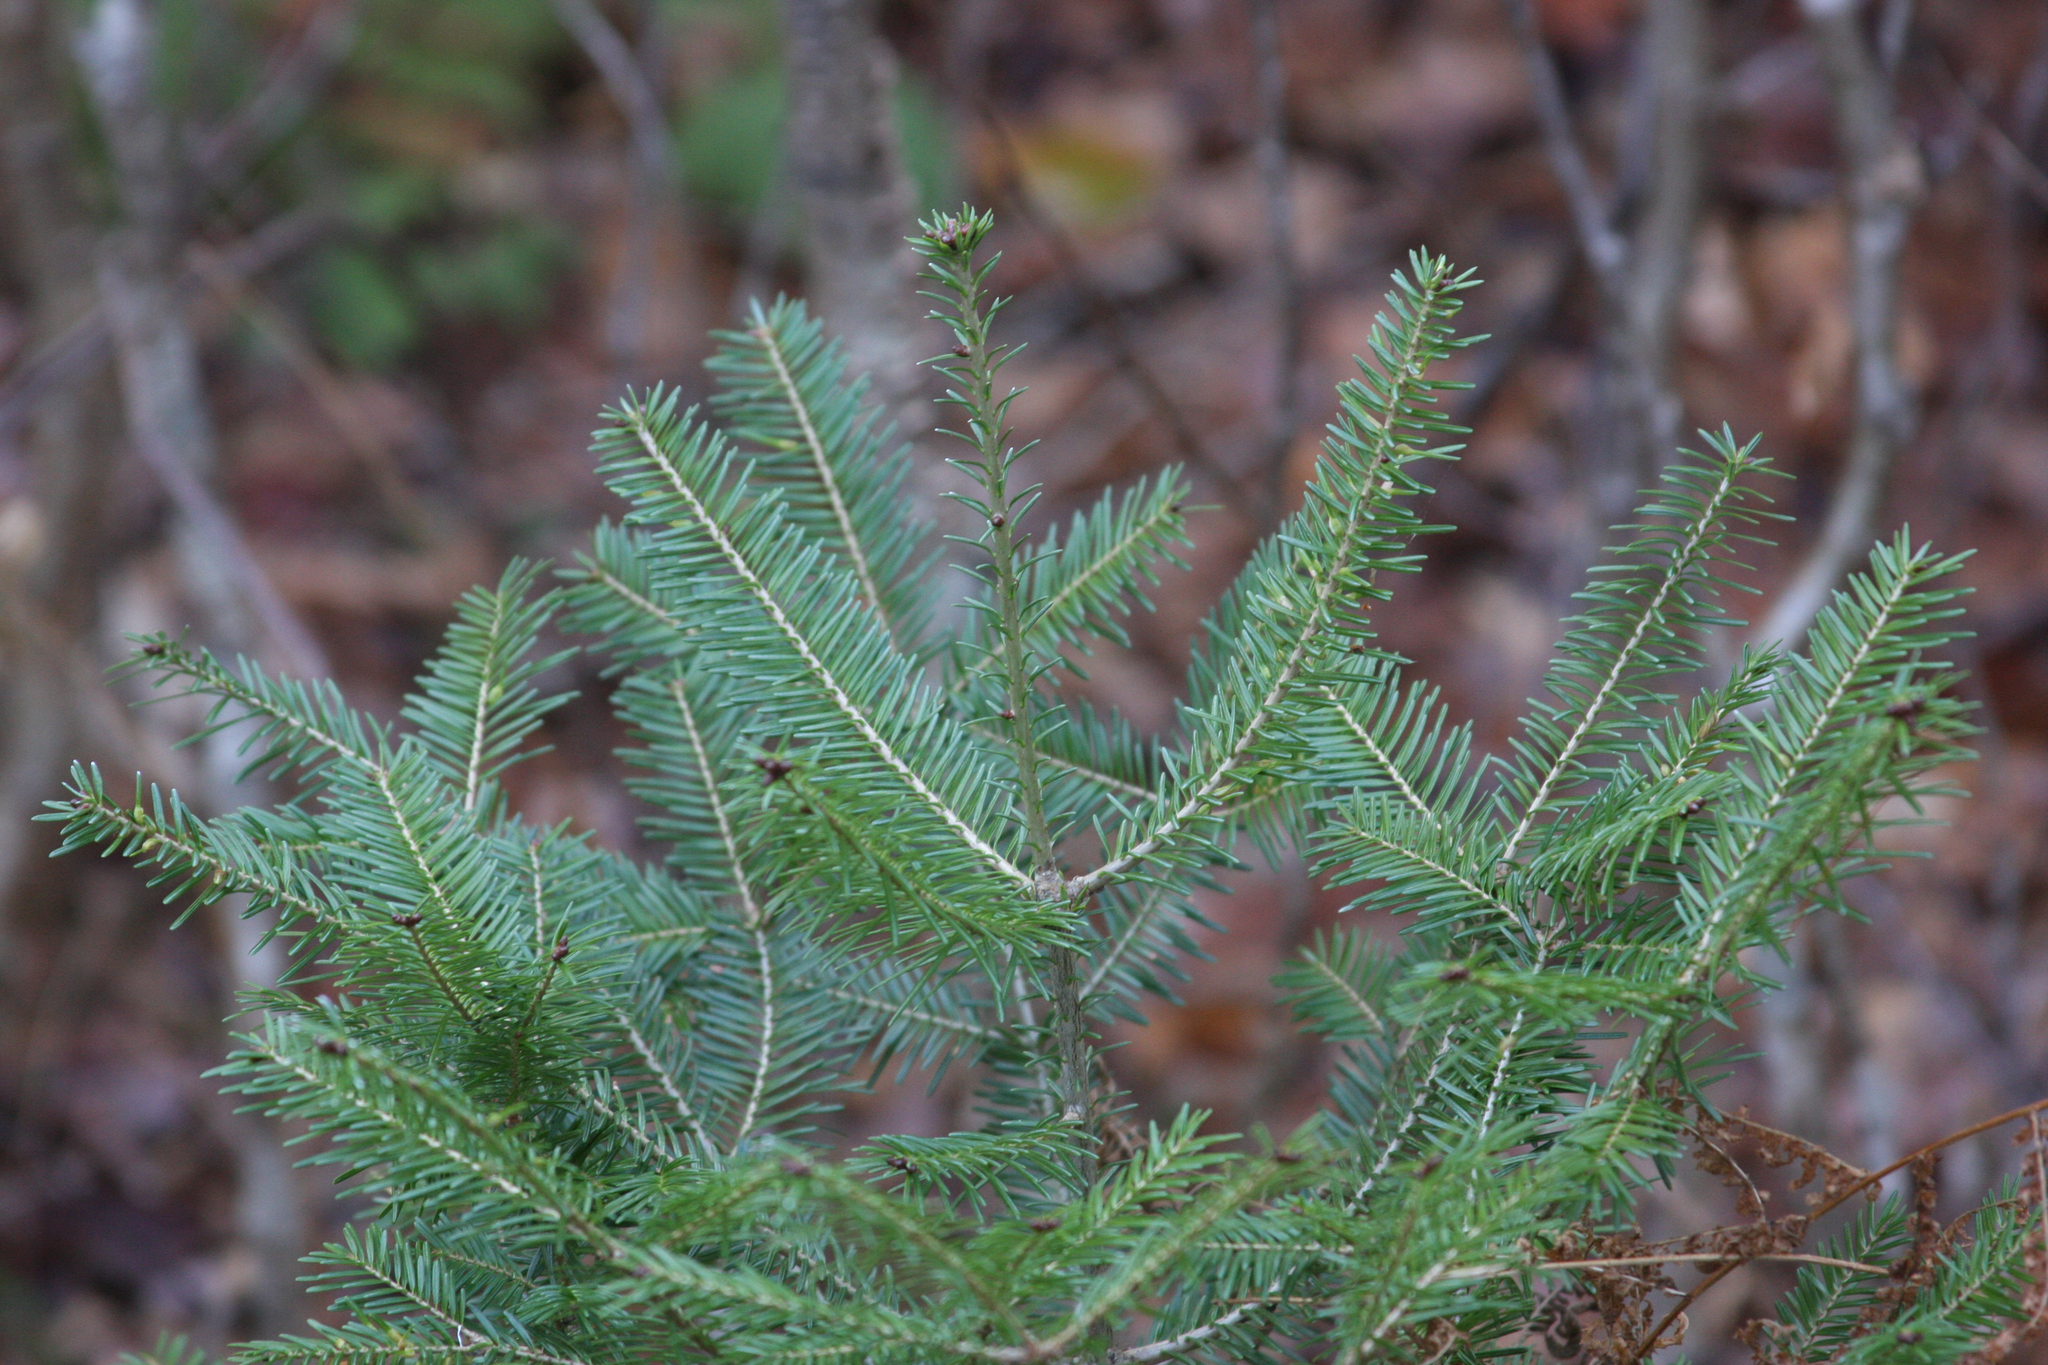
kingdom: Plantae
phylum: Tracheophyta
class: Pinopsida
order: Pinales
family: Pinaceae
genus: Abies
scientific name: Abies balsamea
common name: Balsam fir
